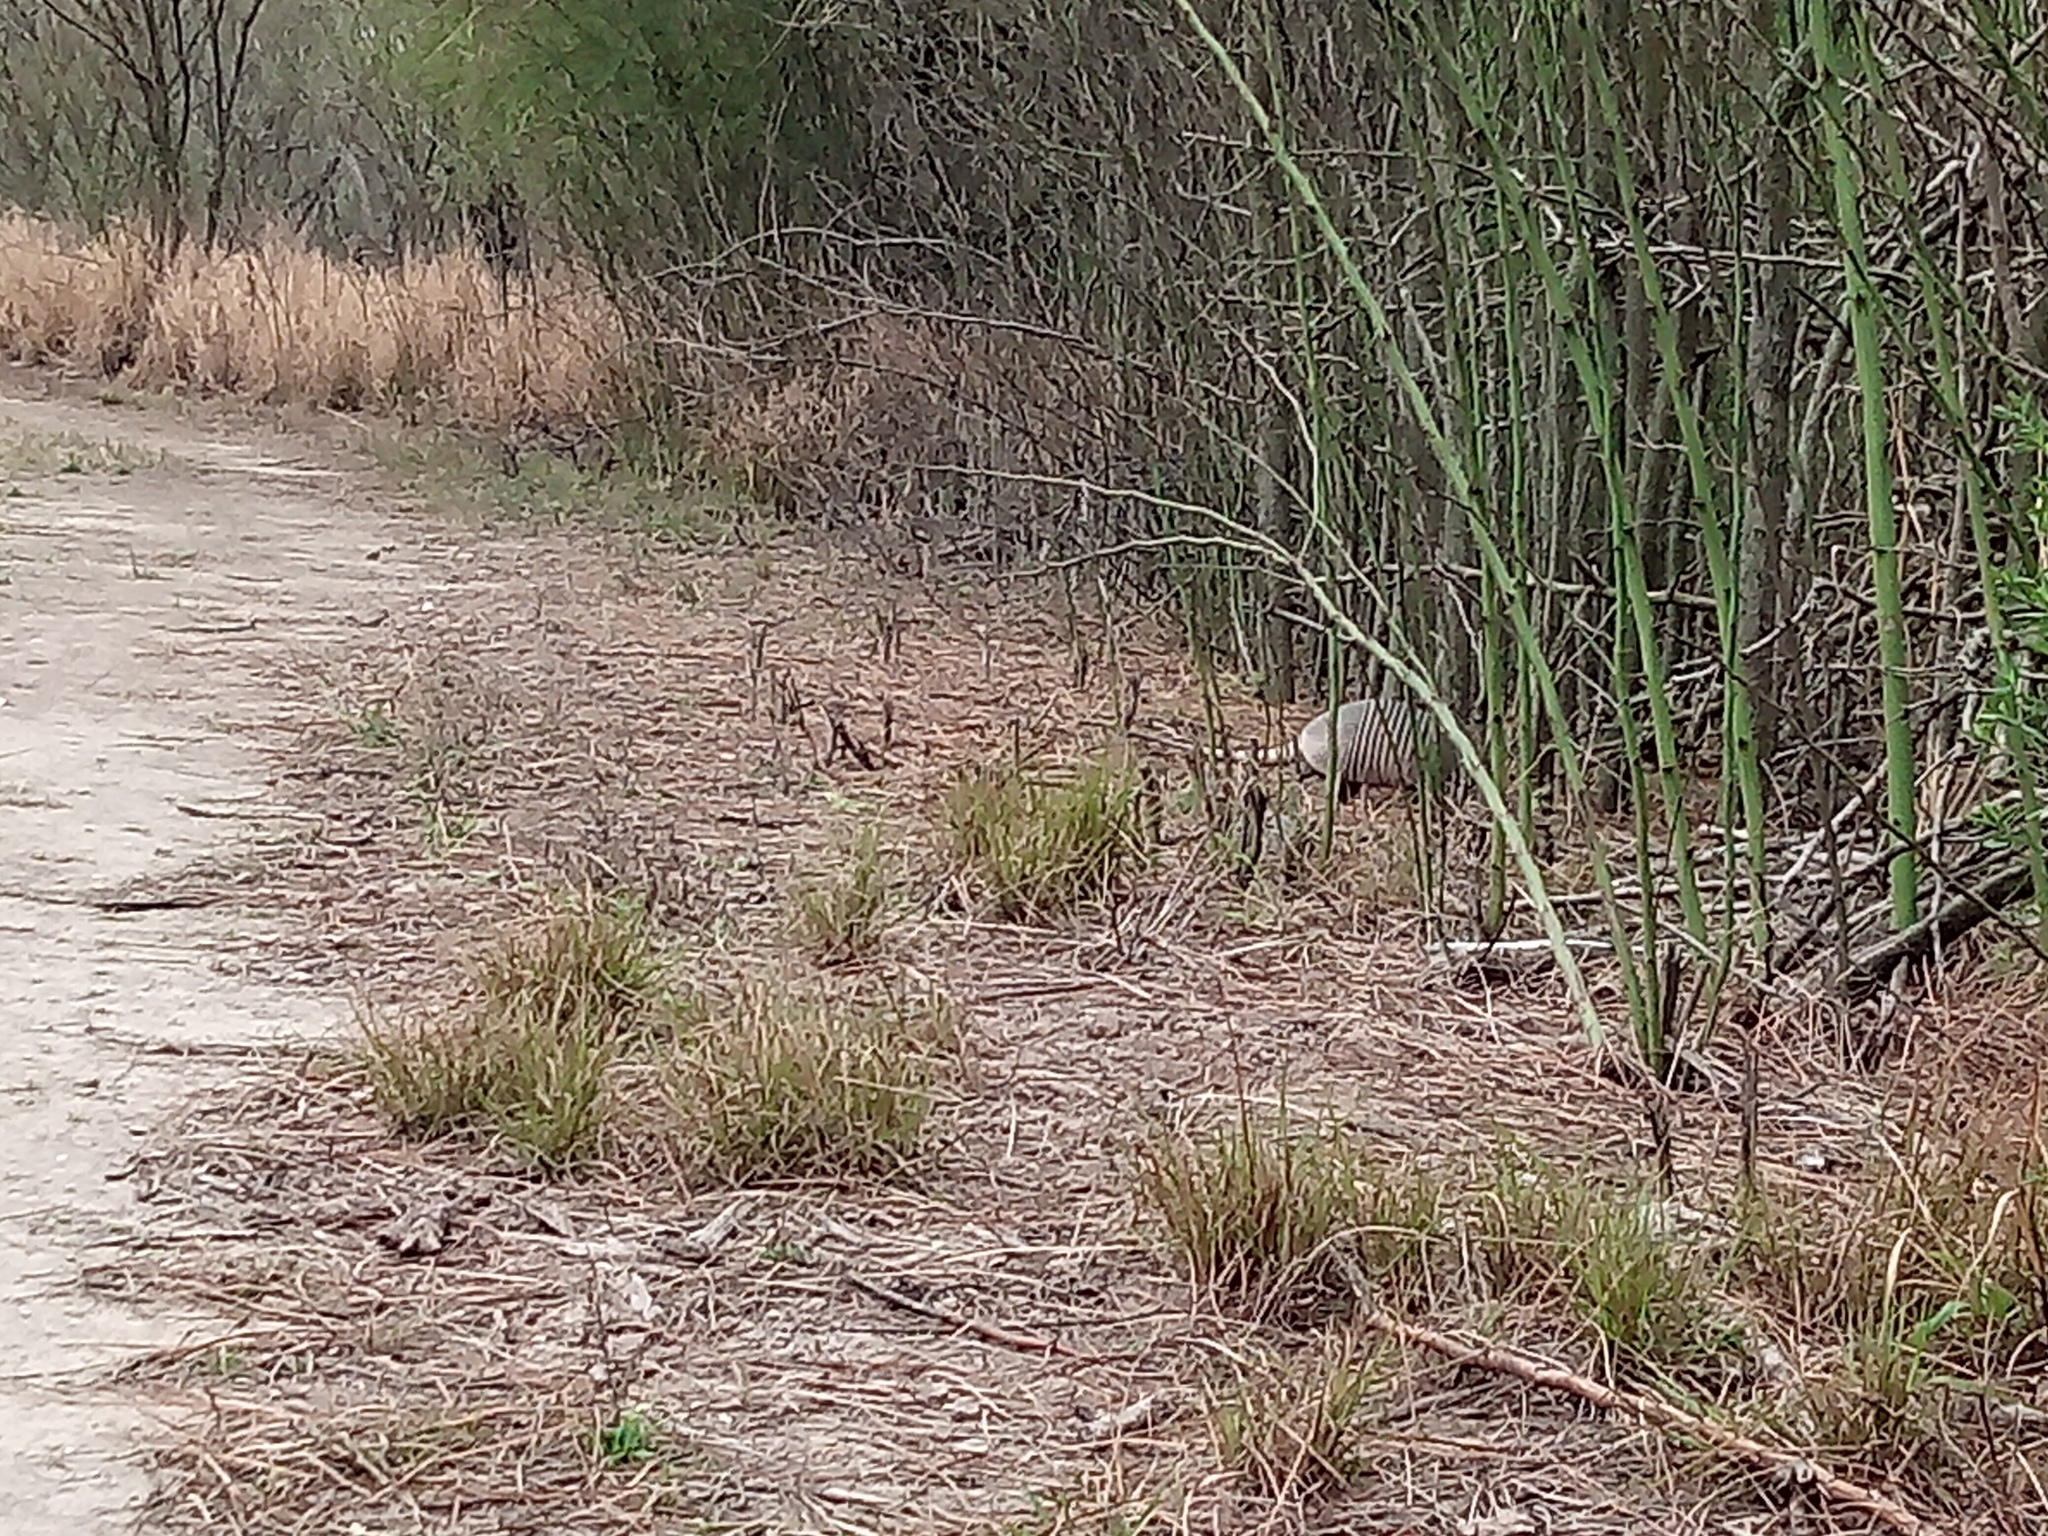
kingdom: Animalia
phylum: Chordata
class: Mammalia
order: Cingulata
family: Dasypodidae
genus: Dasypus
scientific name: Dasypus novemcinctus
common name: Nine-banded armadillo
